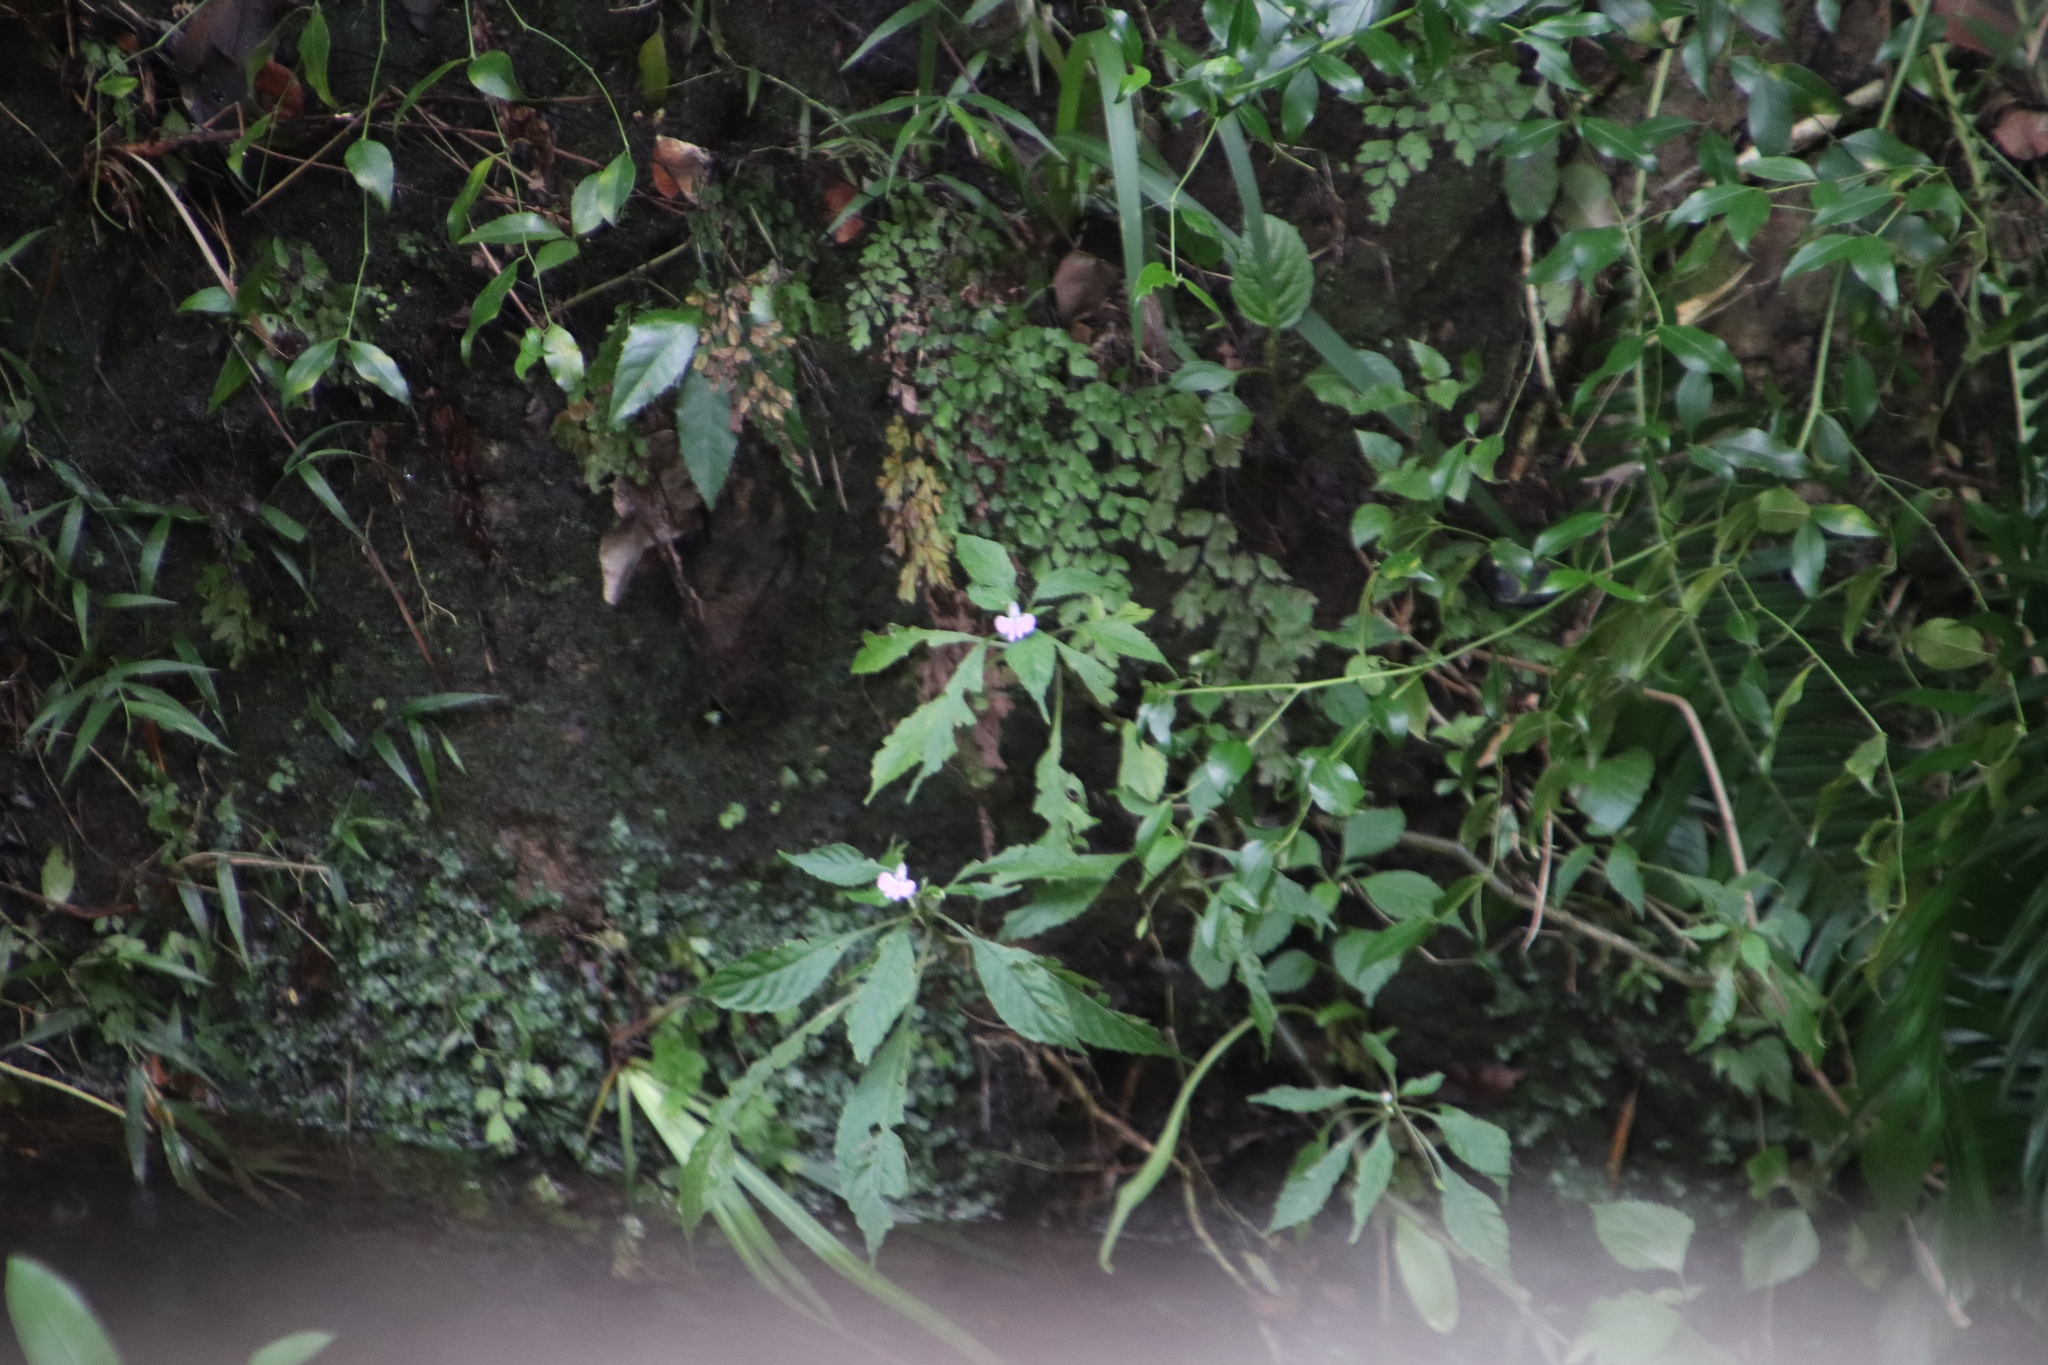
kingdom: Plantae
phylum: Tracheophyta
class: Magnoliopsida
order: Ericales
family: Balsaminaceae
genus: Impatiens
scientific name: Impatiens hochstetteri
